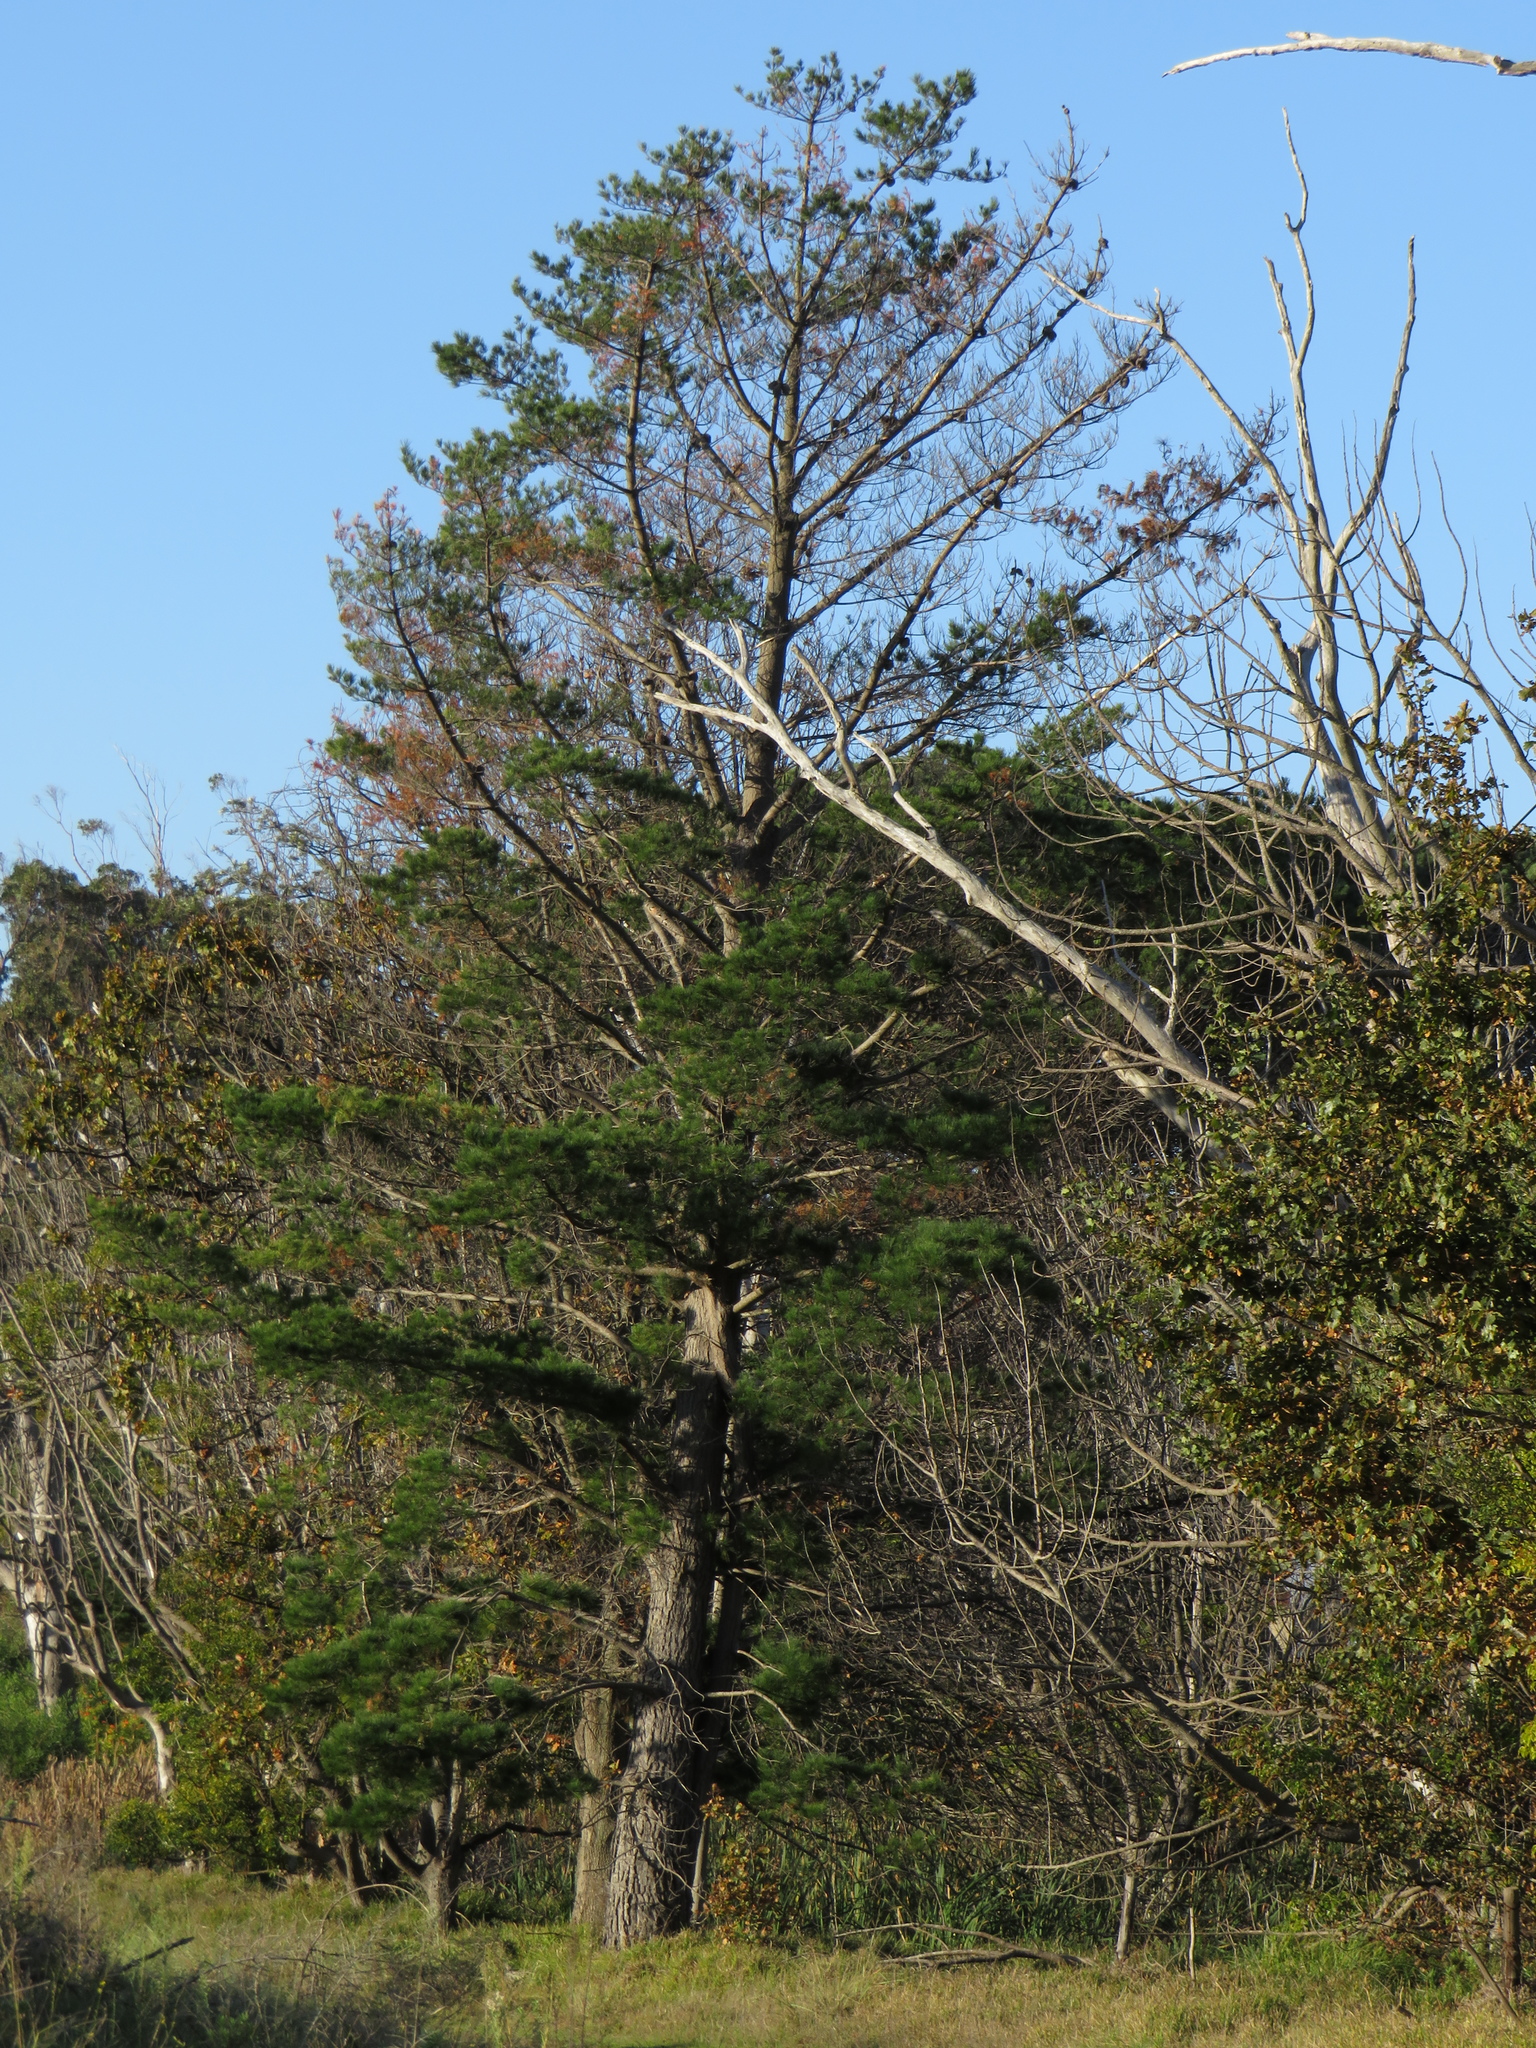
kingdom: Plantae
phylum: Tracheophyta
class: Pinopsida
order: Pinales
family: Pinaceae
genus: Pinus
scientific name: Pinus radiata
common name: Monterey pine
